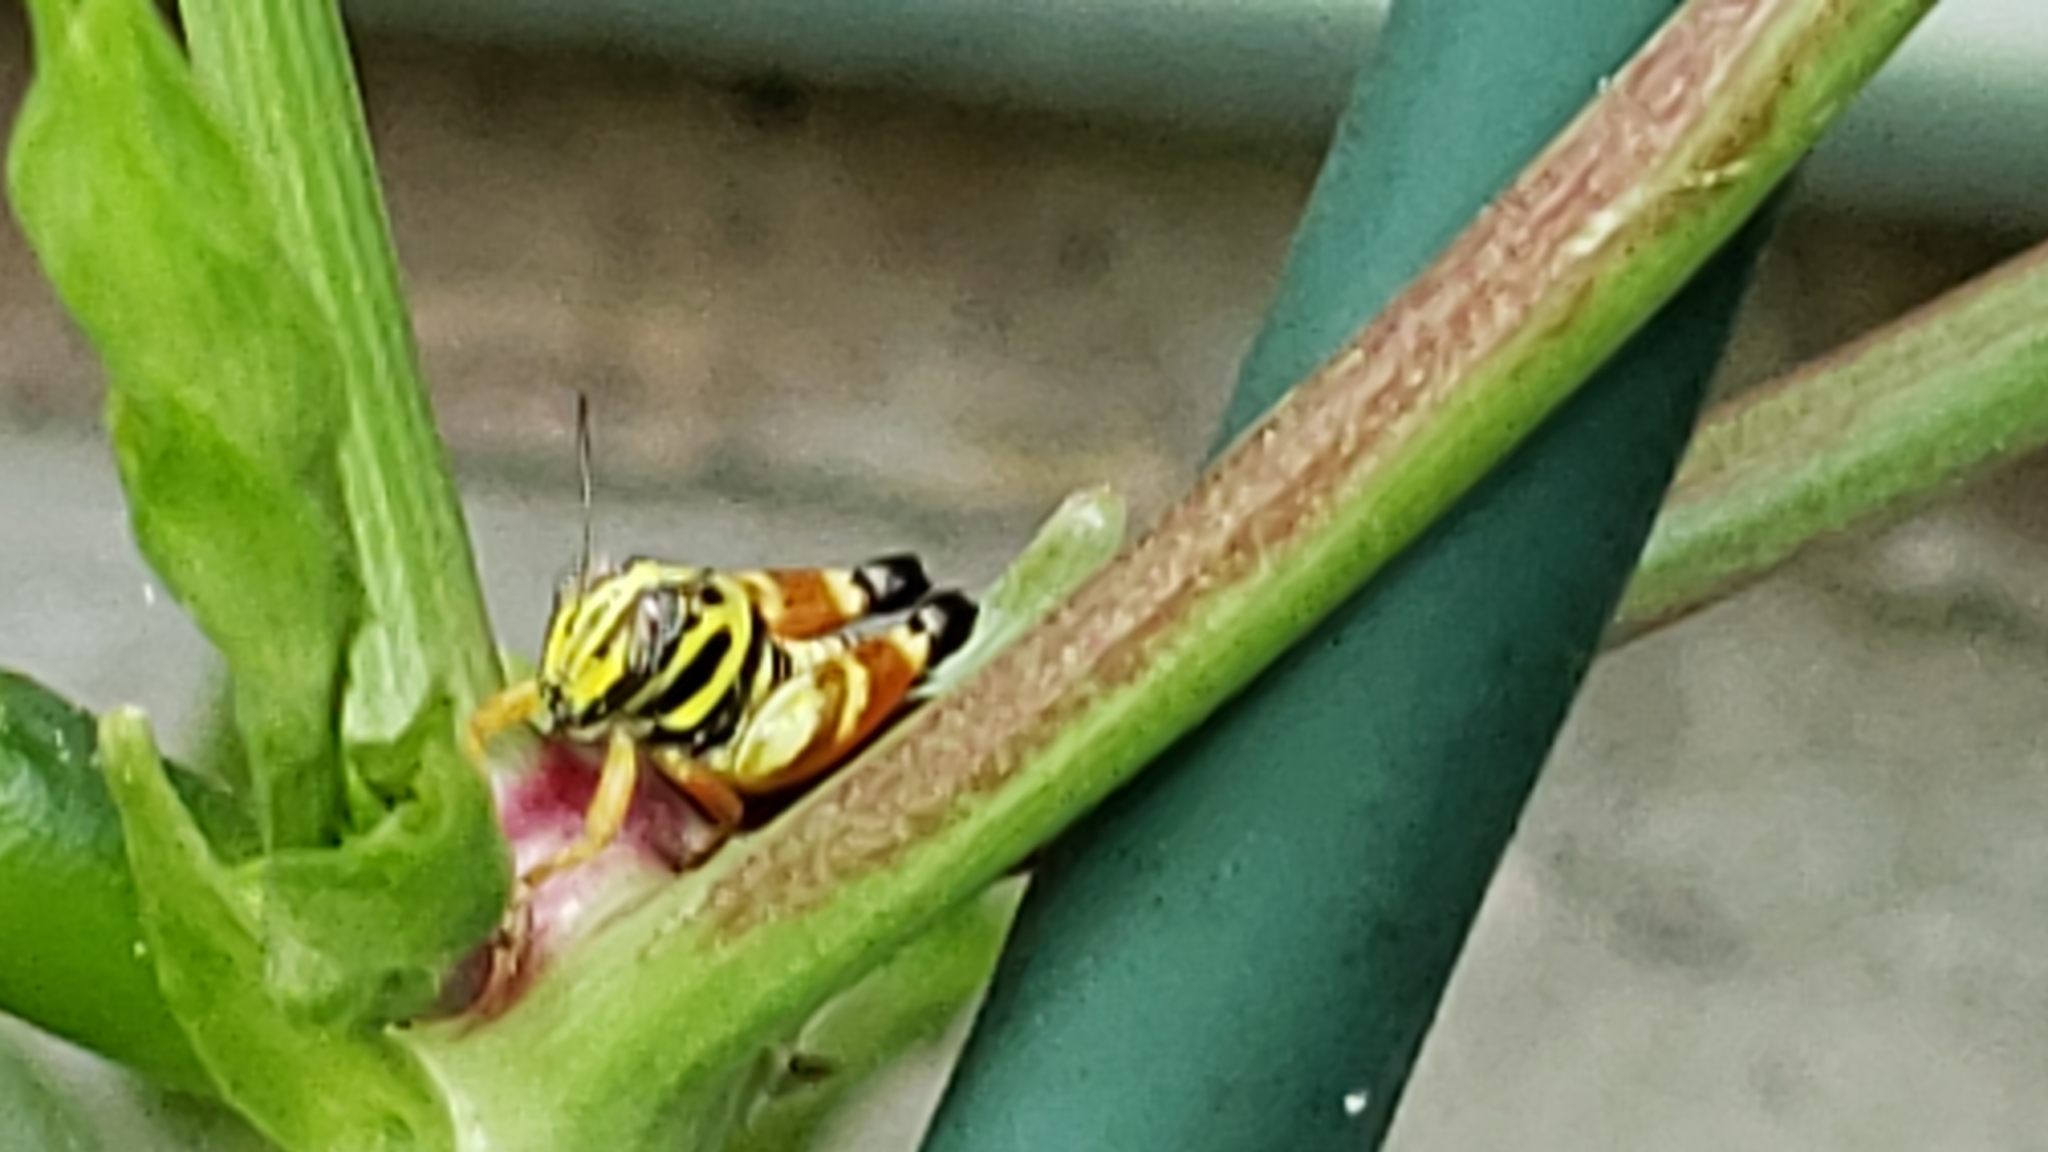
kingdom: Animalia
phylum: Arthropoda
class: Insecta
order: Orthoptera
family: Acrididae
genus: Aidemona
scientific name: Aidemona azteca
